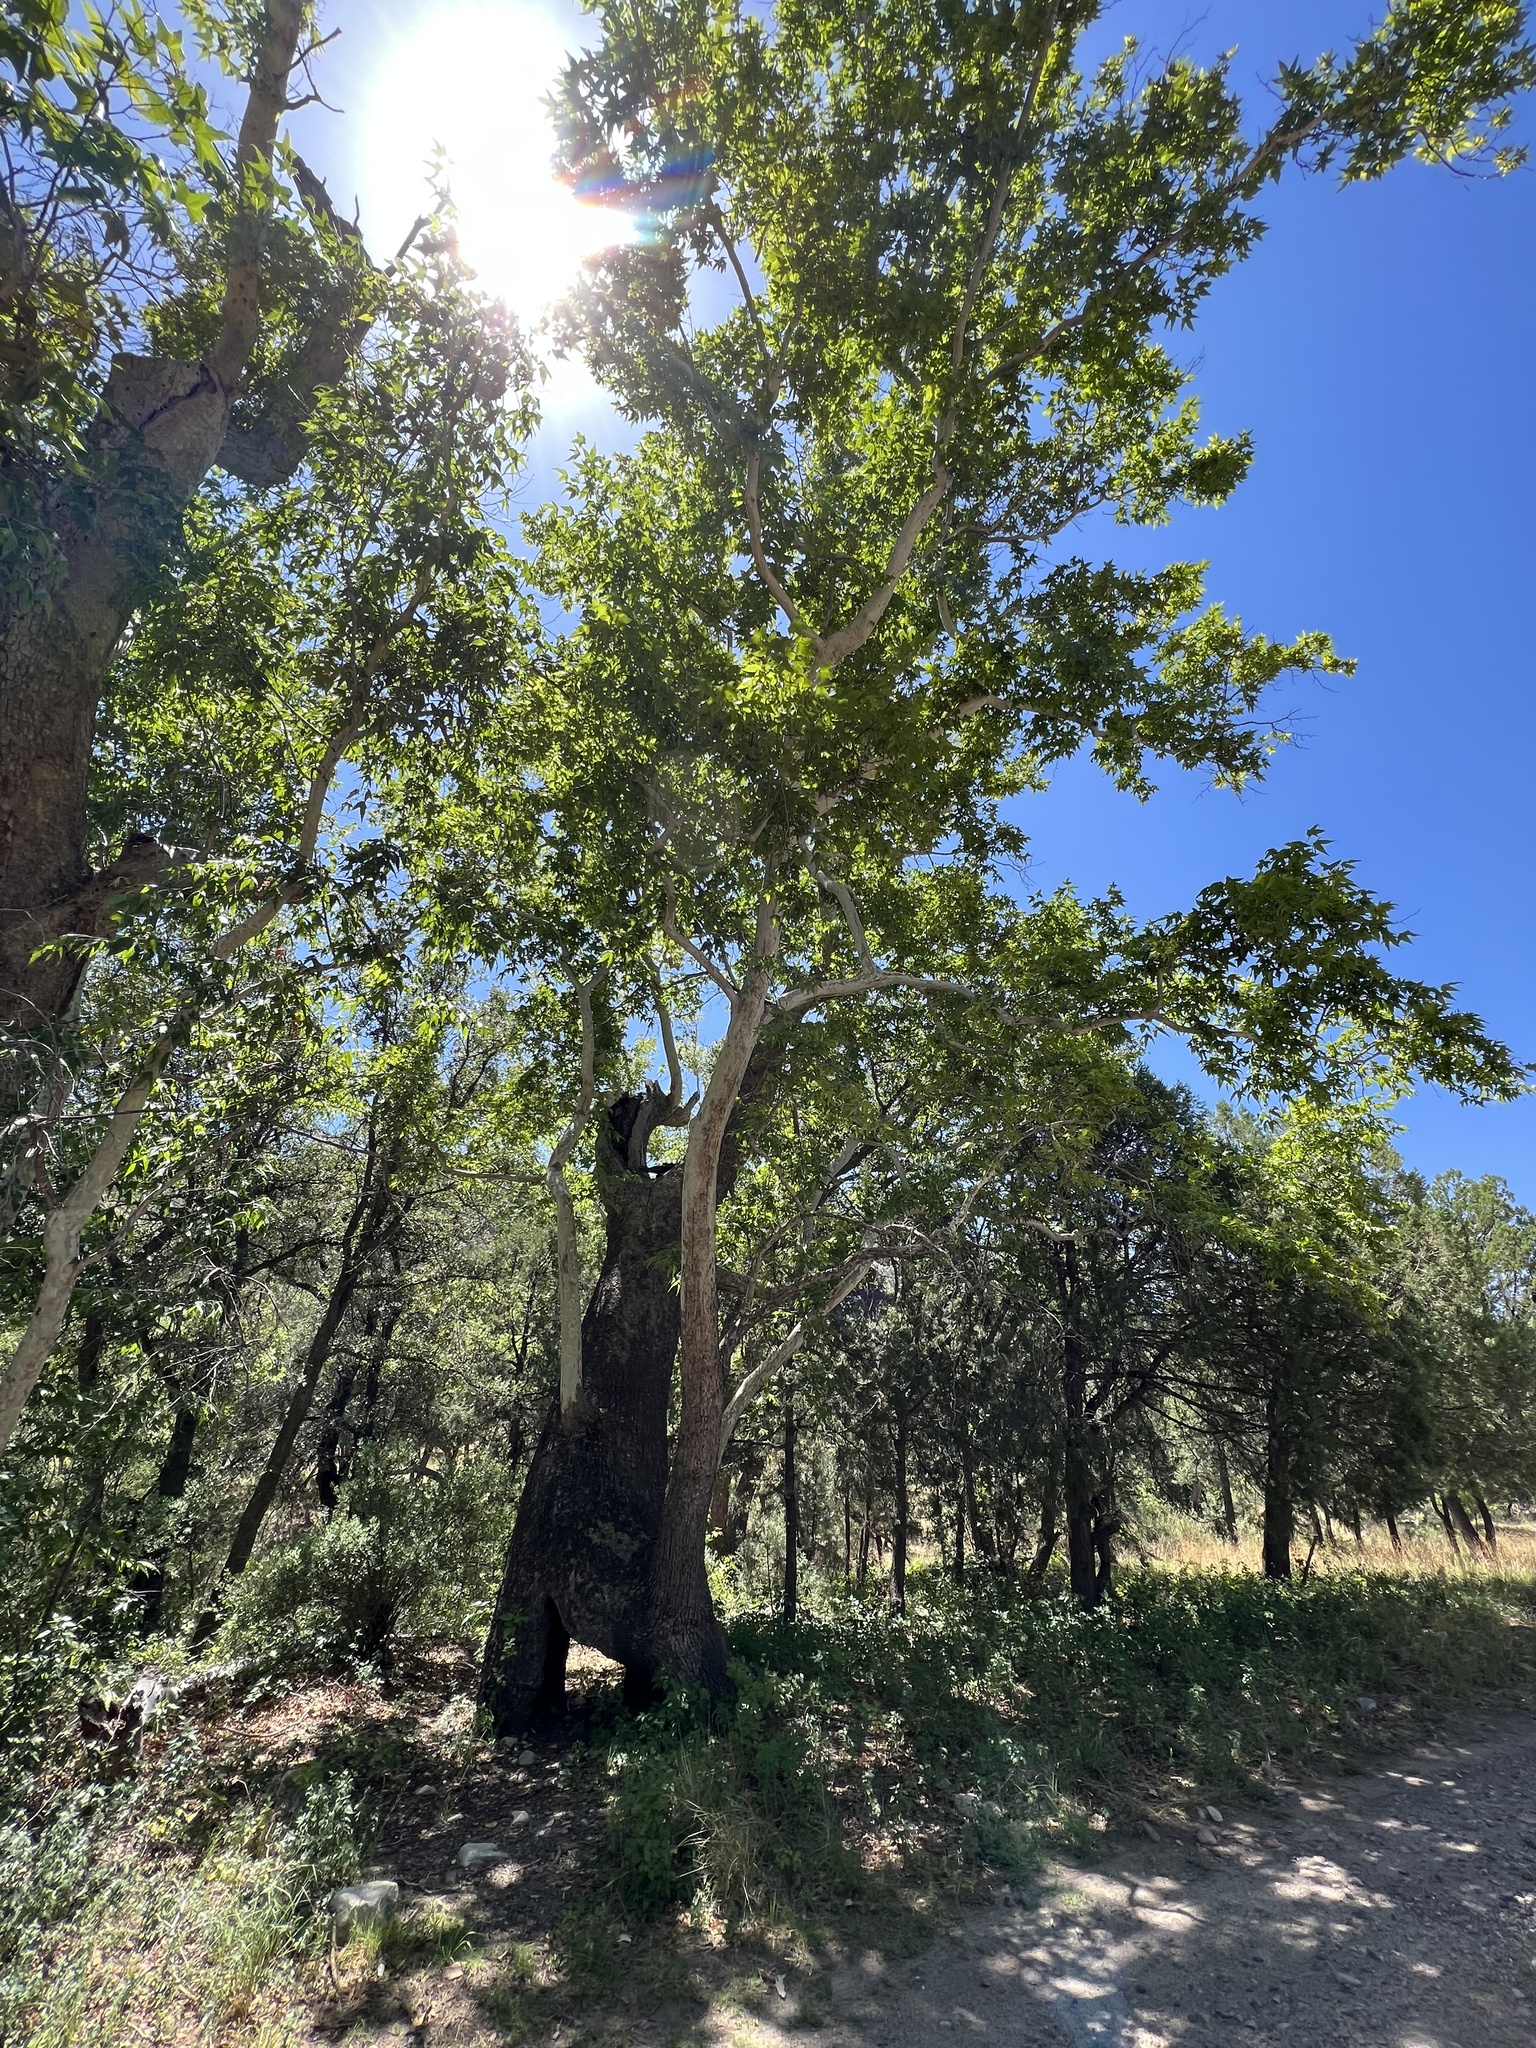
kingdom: Plantae
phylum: Tracheophyta
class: Magnoliopsida
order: Proteales
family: Platanaceae
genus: Platanus
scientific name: Platanus wrightii
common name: Arizona sycamore
